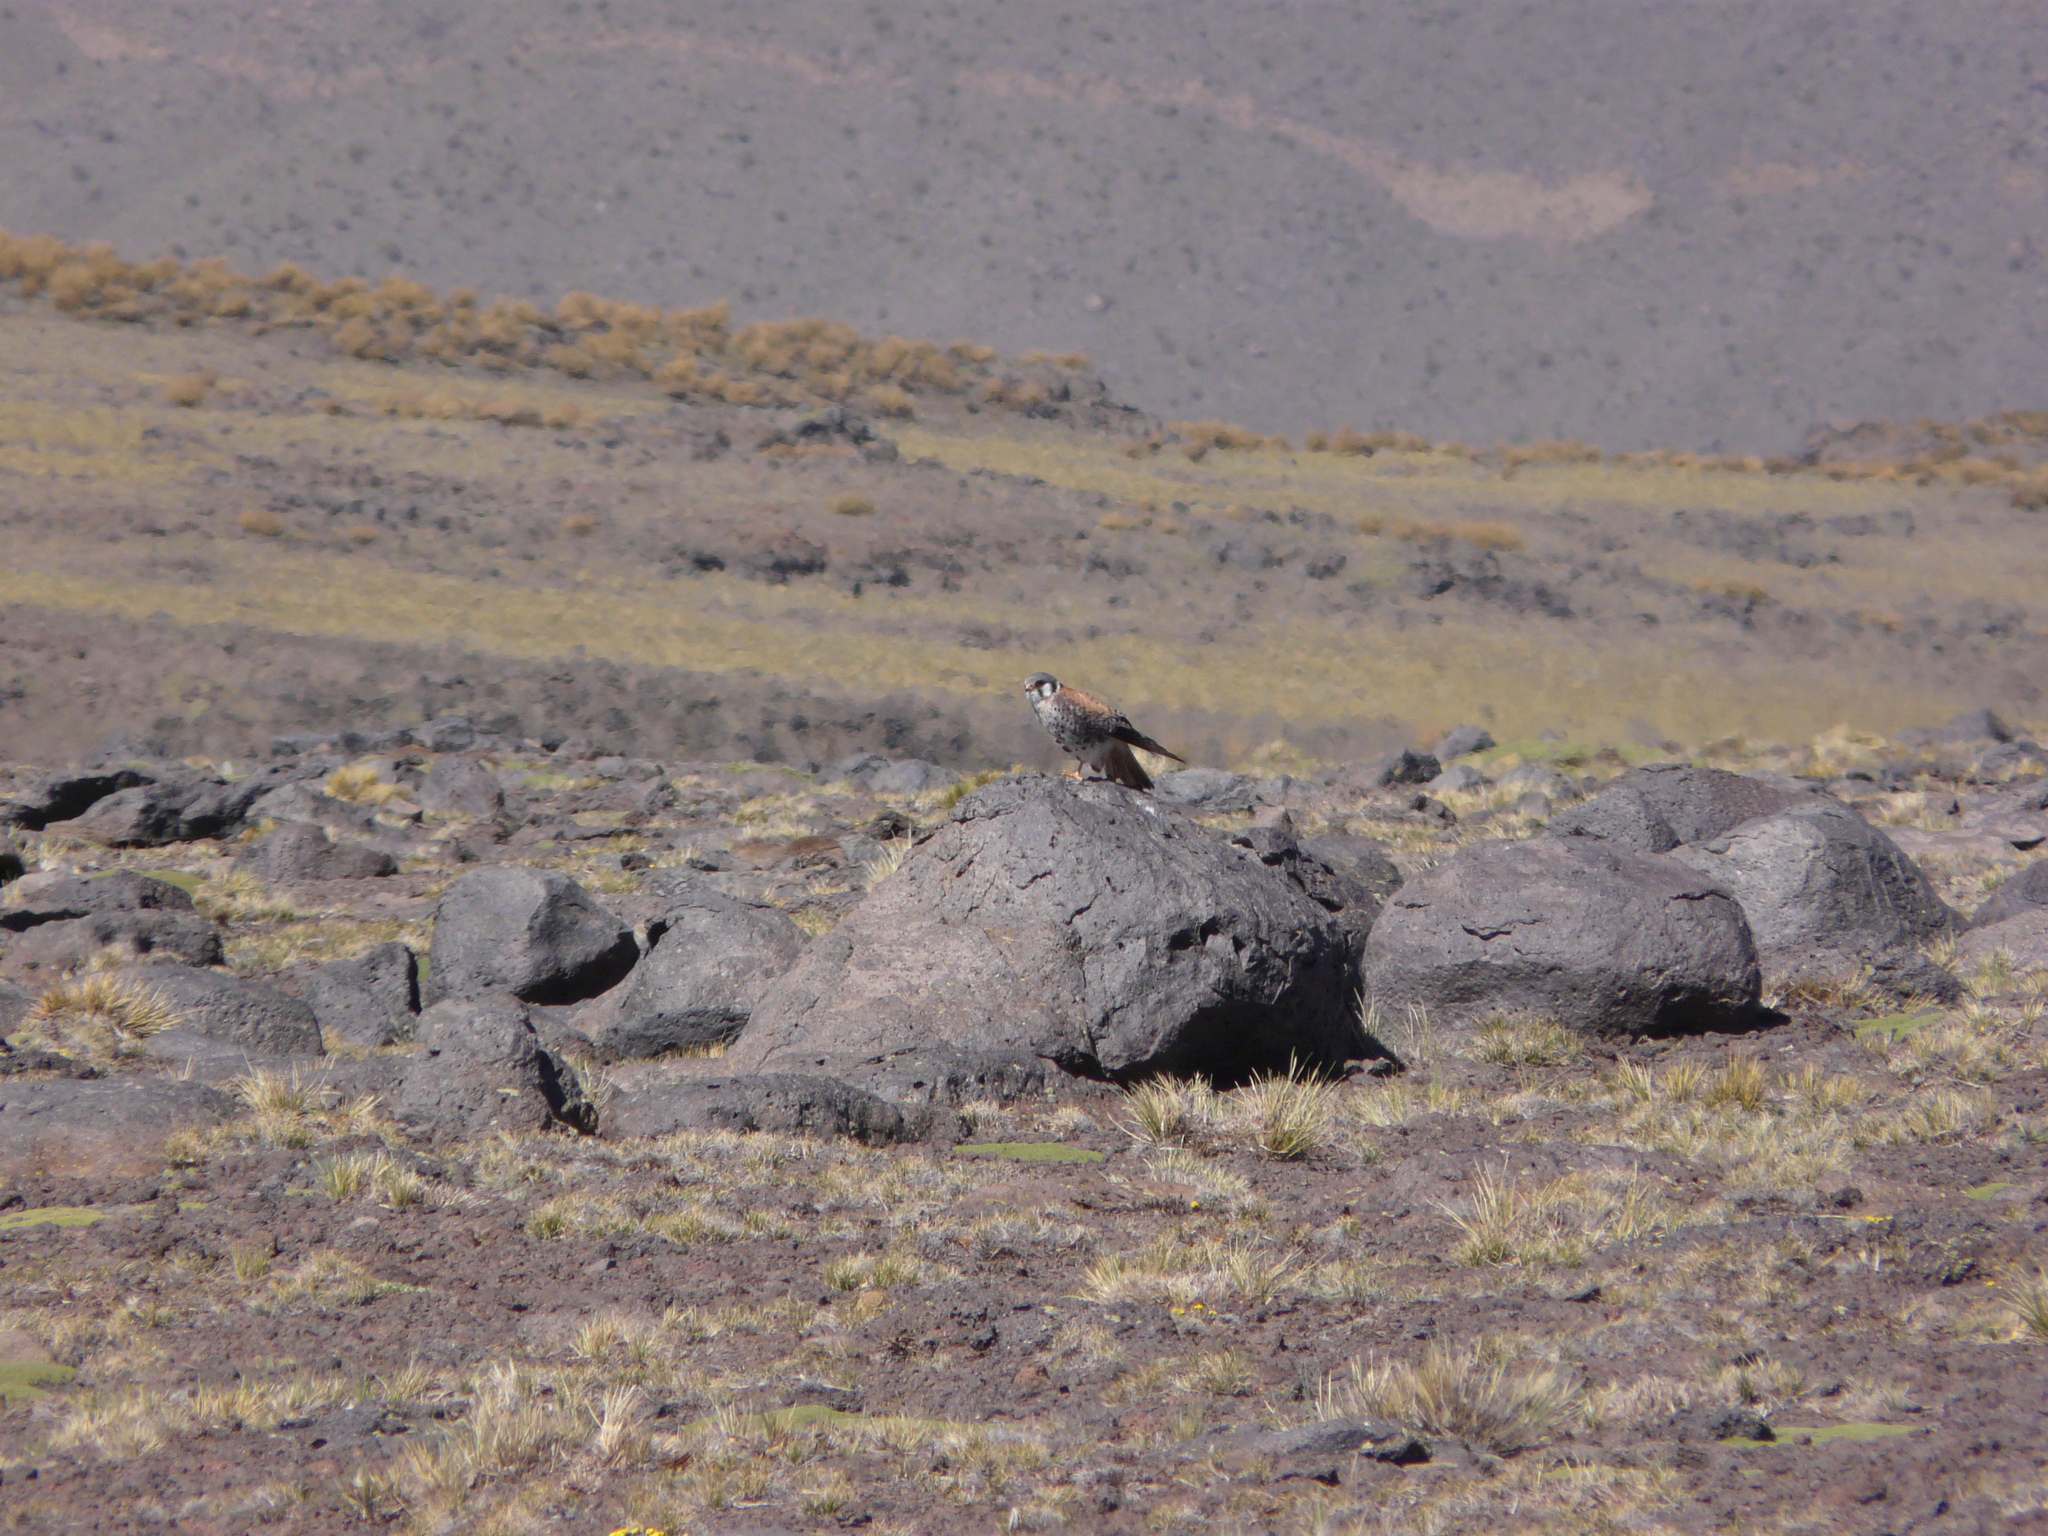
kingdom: Animalia
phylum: Chordata
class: Aves
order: Falconiformes
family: Falconidae
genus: Falco
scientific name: Falco sparverius
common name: American kestrel
